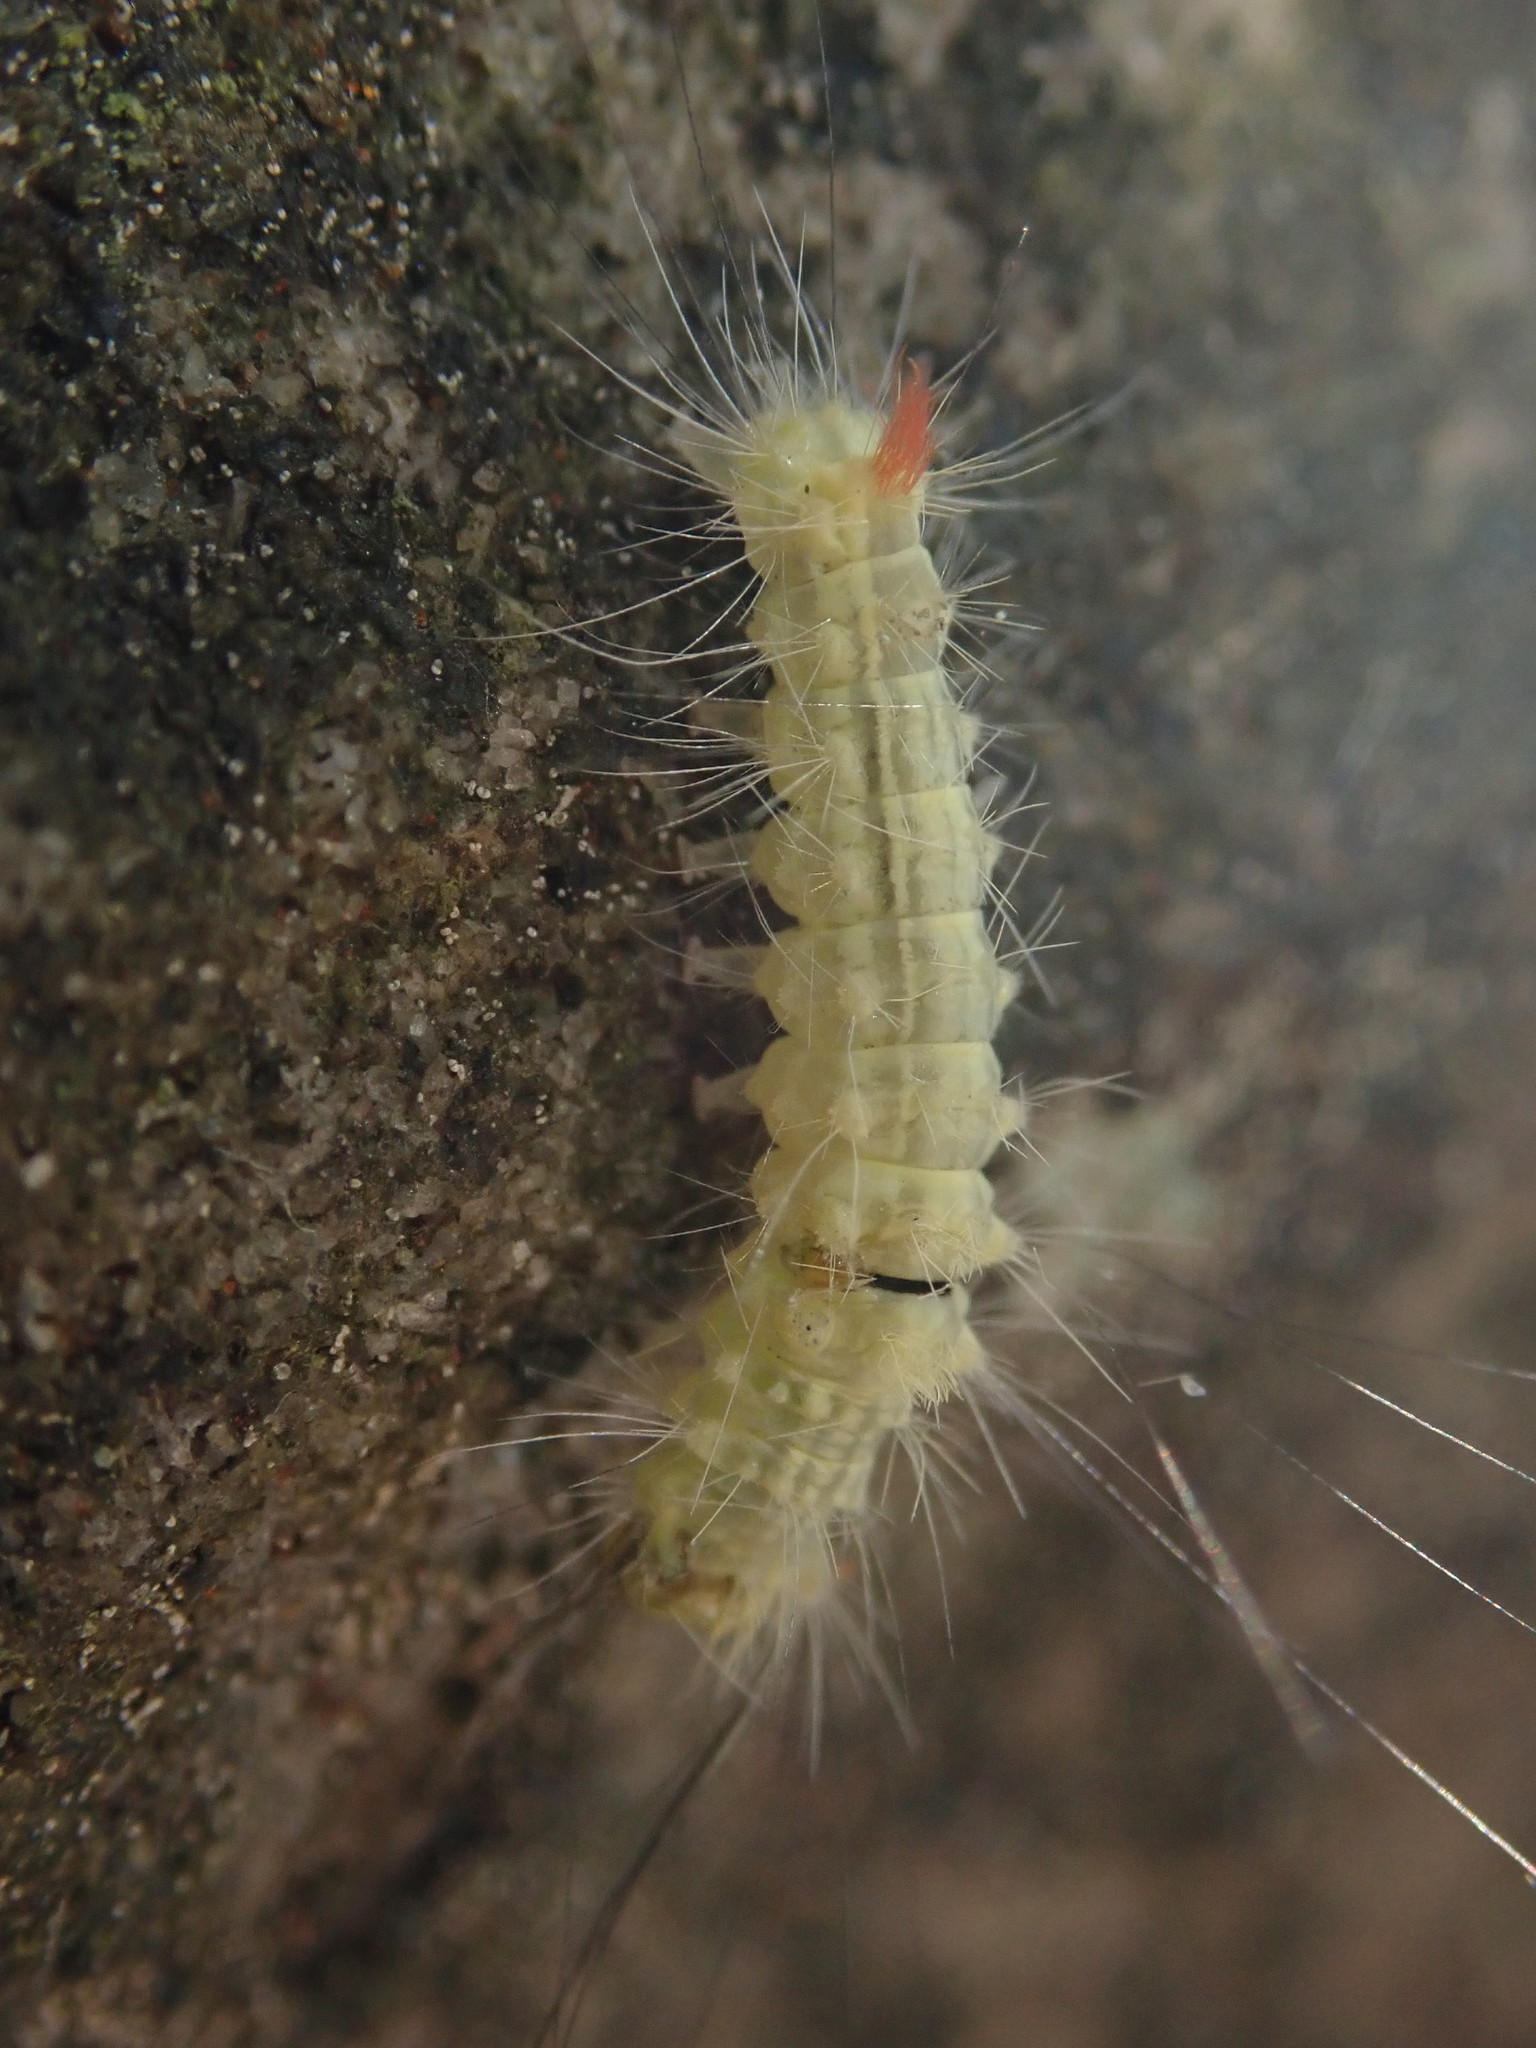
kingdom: Animalia
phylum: Arthropoda
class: Insecta
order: Lepidoptera
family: Erebidae
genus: Calliteara
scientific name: Calliteara pudibunda
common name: Pale tussock
